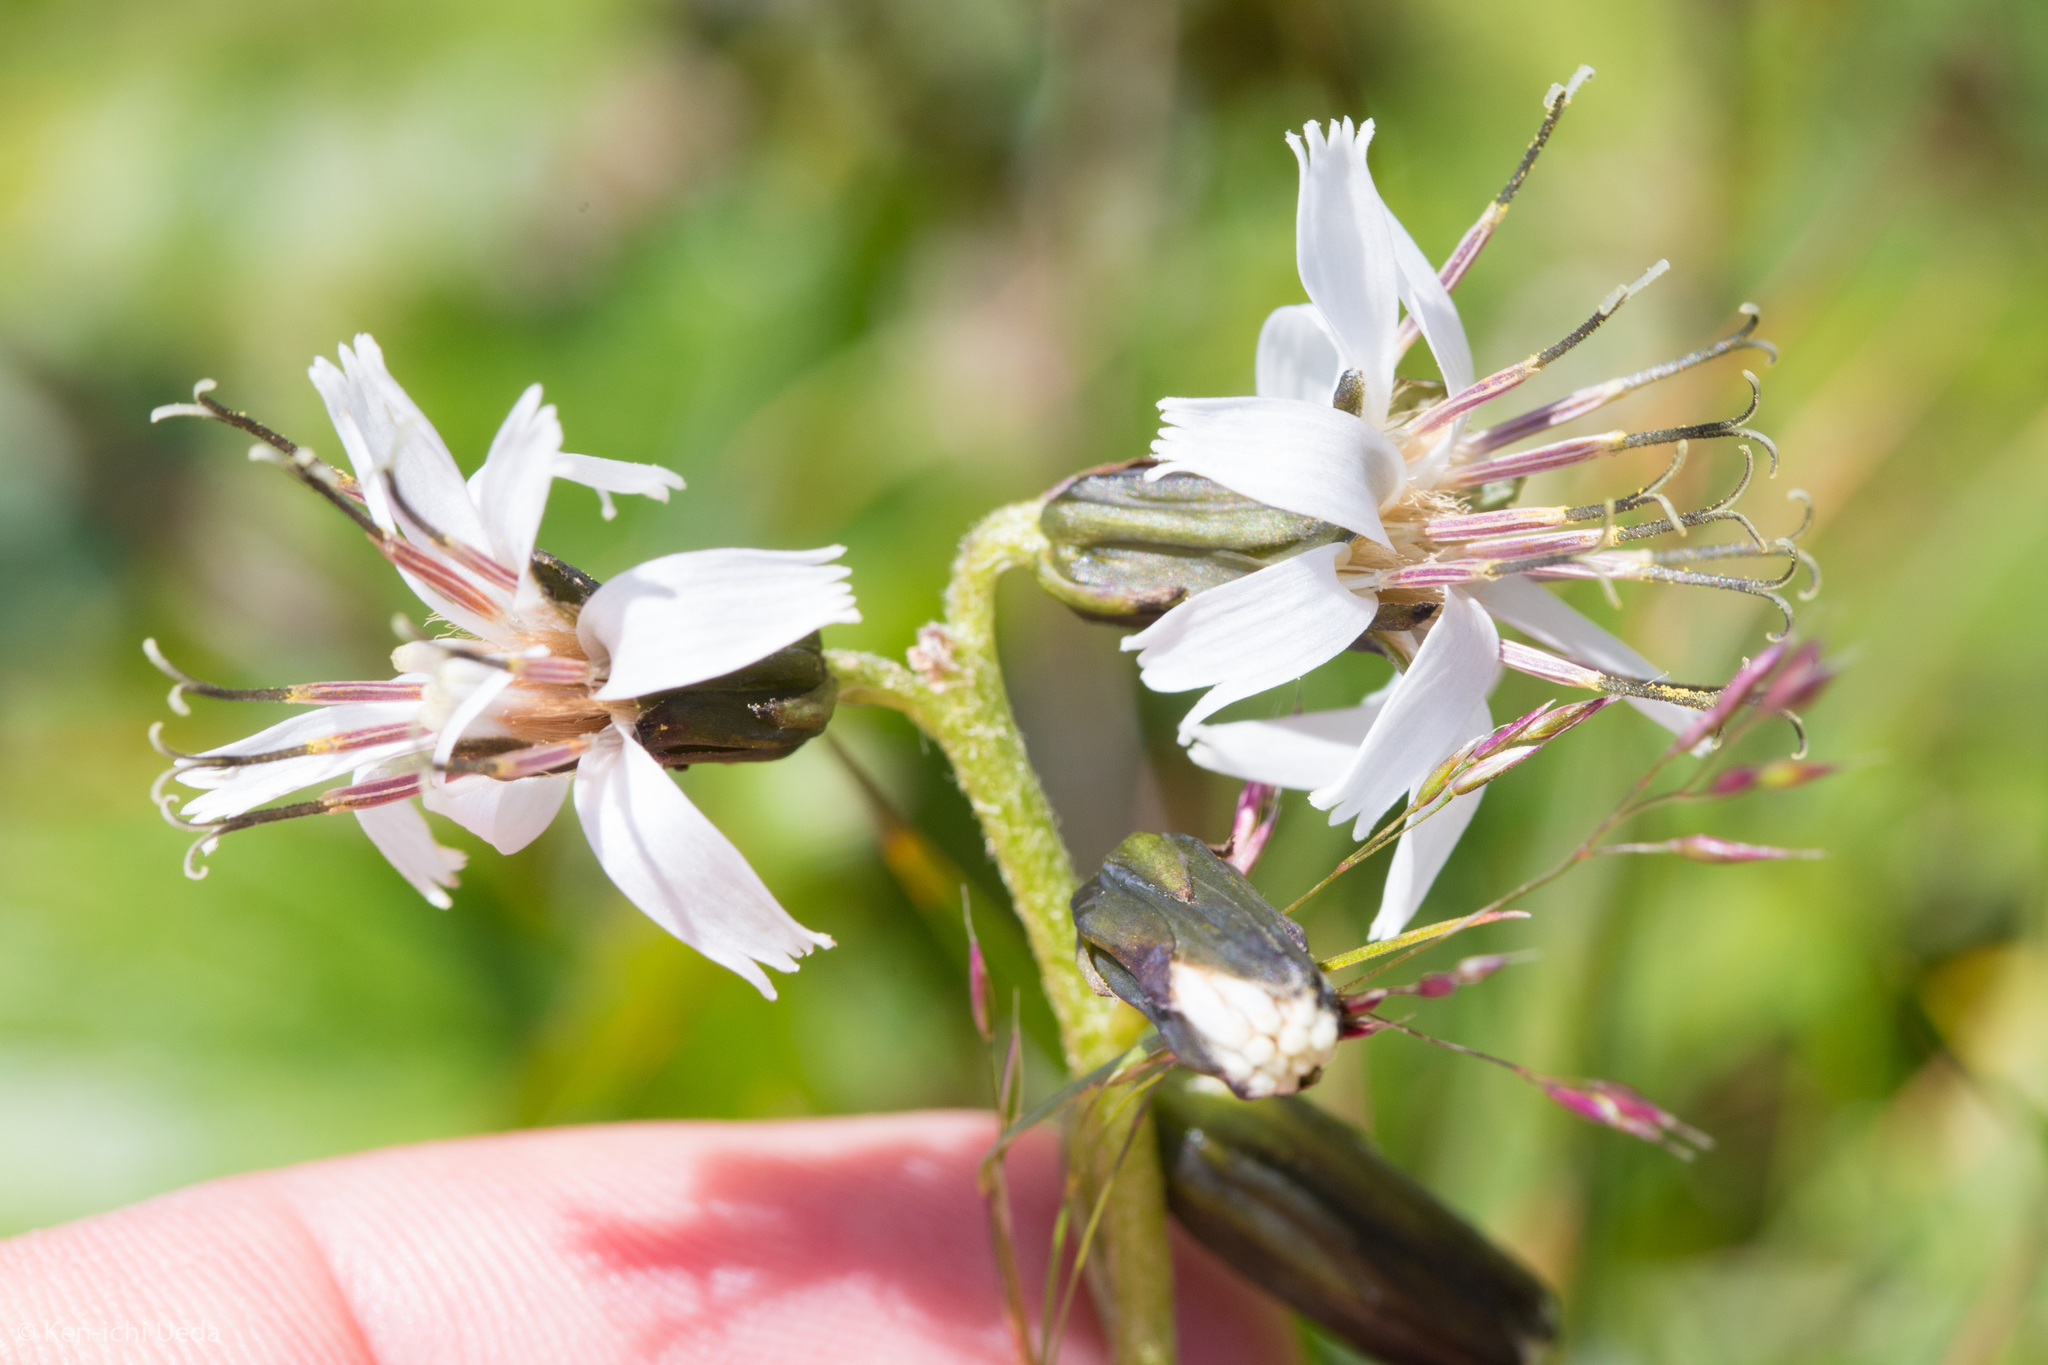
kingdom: Plantae
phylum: Tracheophyta
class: Magnoliopsida
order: Asterales
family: Asteraceae
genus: Nabalus
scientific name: Nabalus boottii
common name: Boot’s rattlesnakeroot
